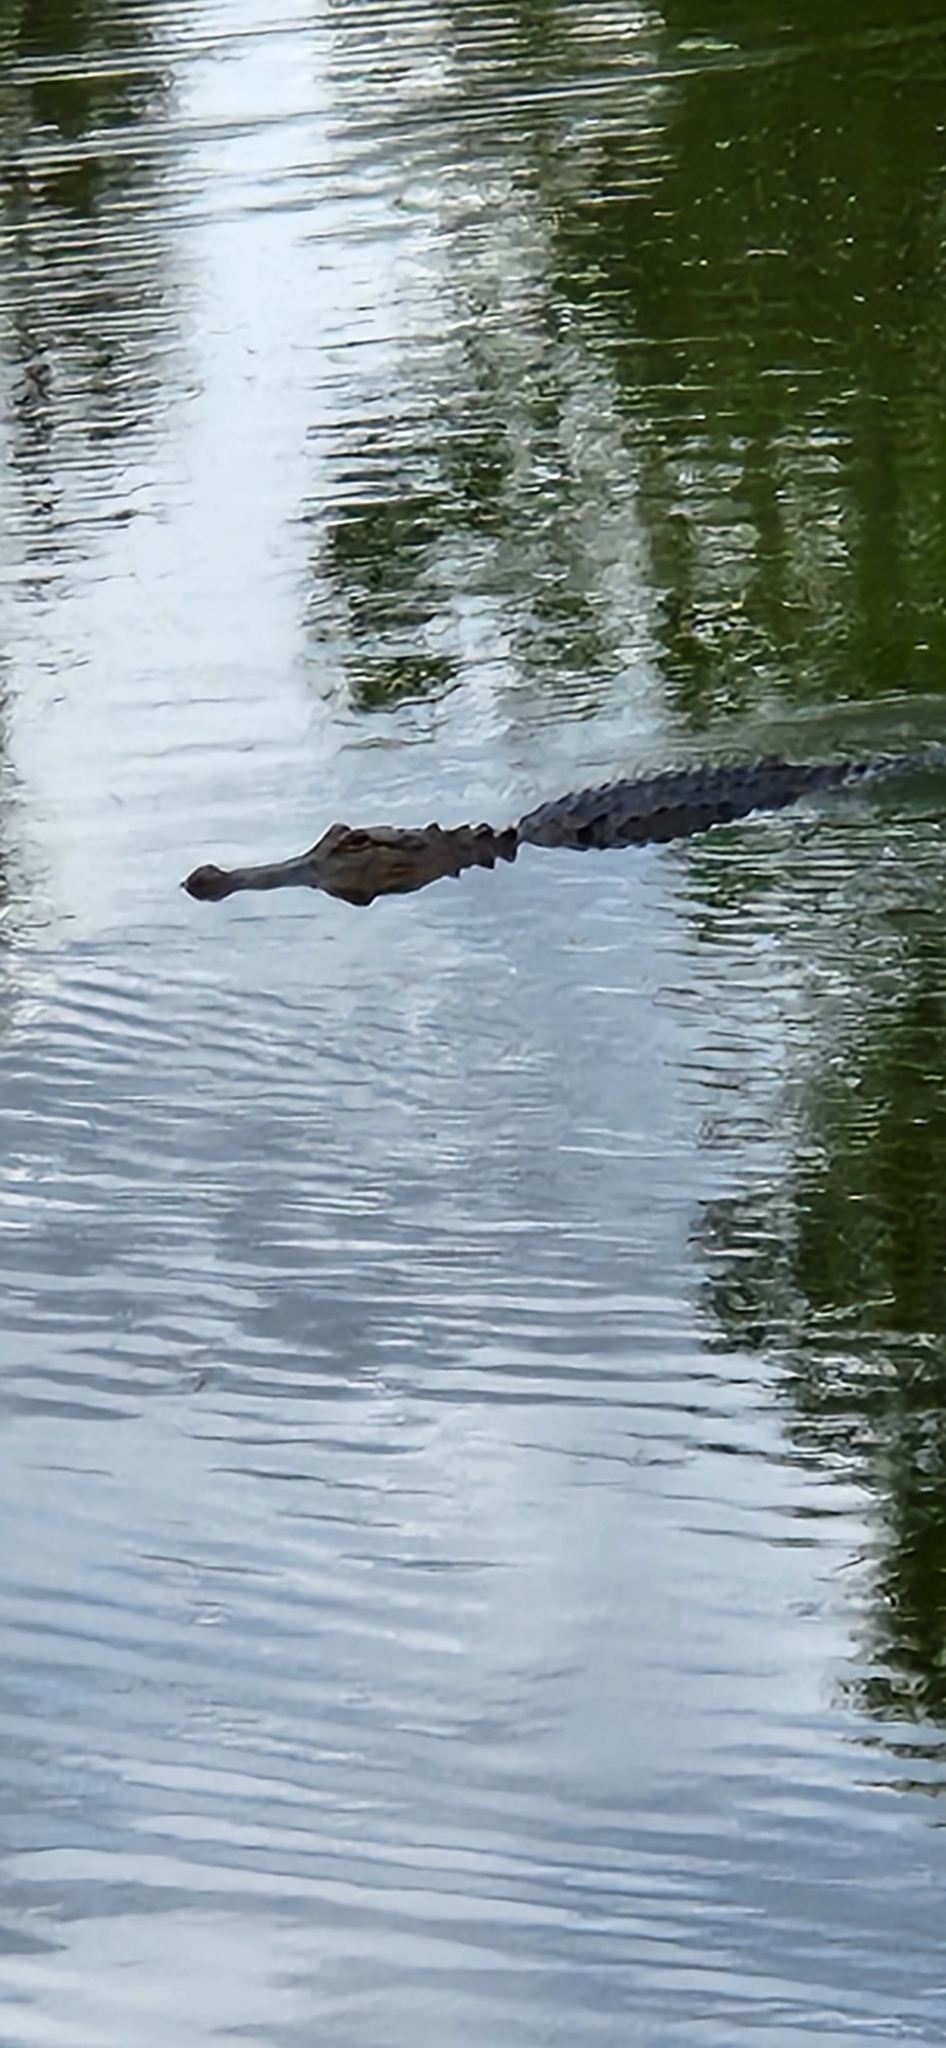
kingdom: Animalia
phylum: Chordata
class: Crocodylia
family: Alligatoridae
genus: Alligator
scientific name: Alligator mississippiensis
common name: American alligator
